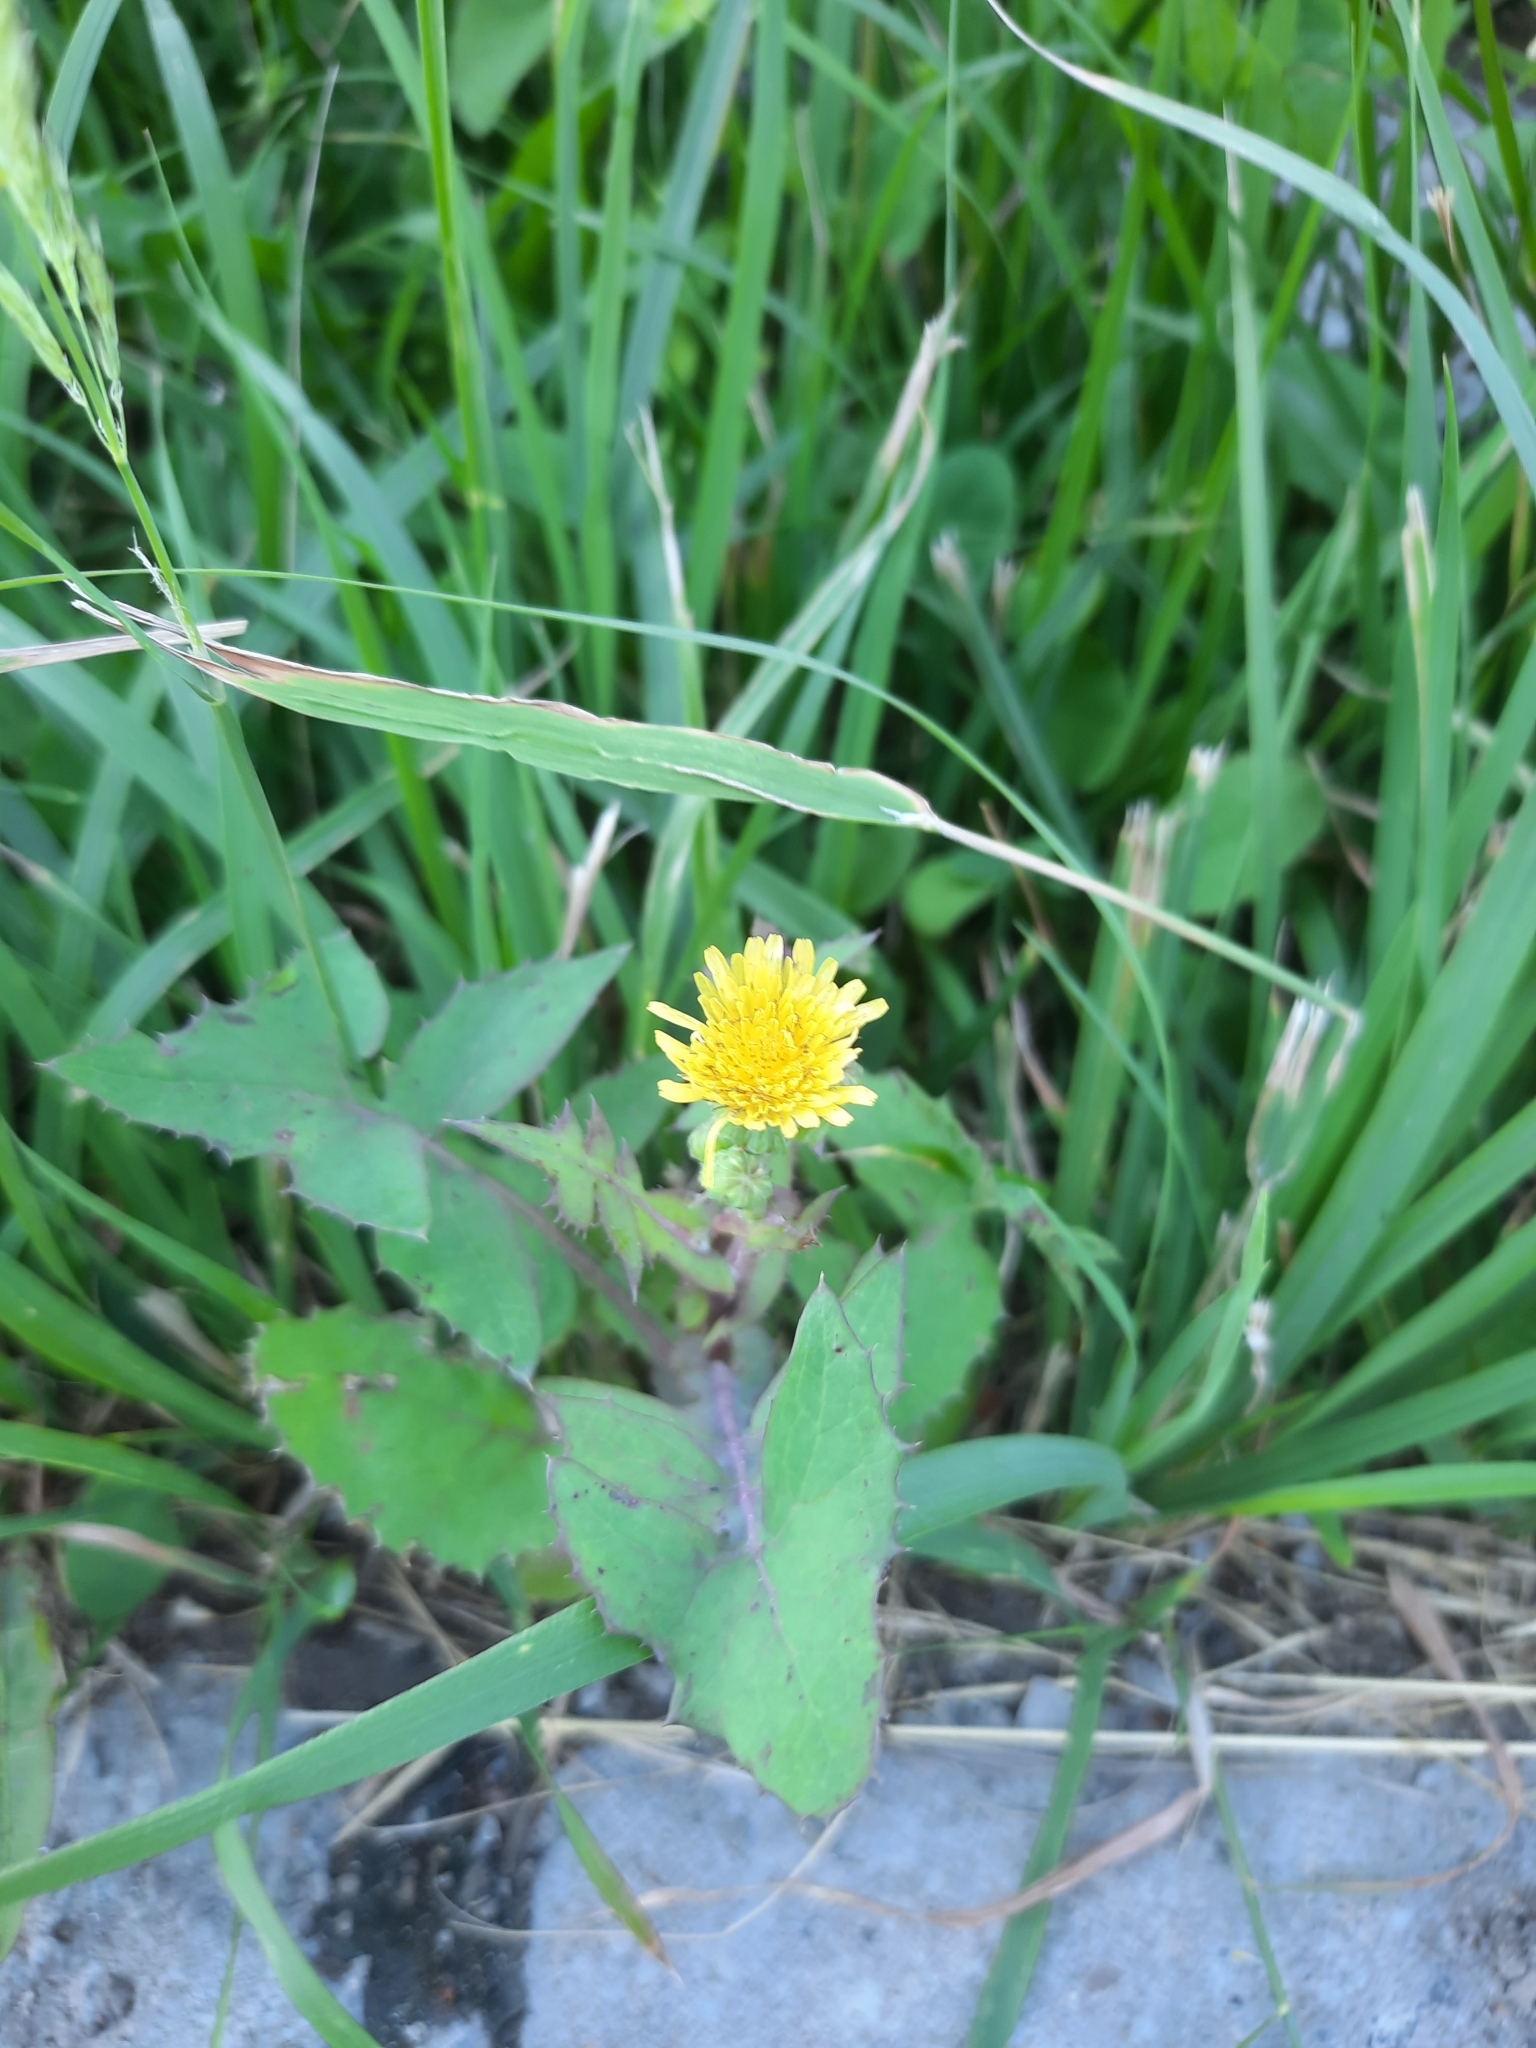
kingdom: Plantae
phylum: Tracheophyta
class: Magnoliopsida
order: Asterales
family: Asteraceae
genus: Sonchus
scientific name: Sonchus oleraceus
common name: Common sowthistle
